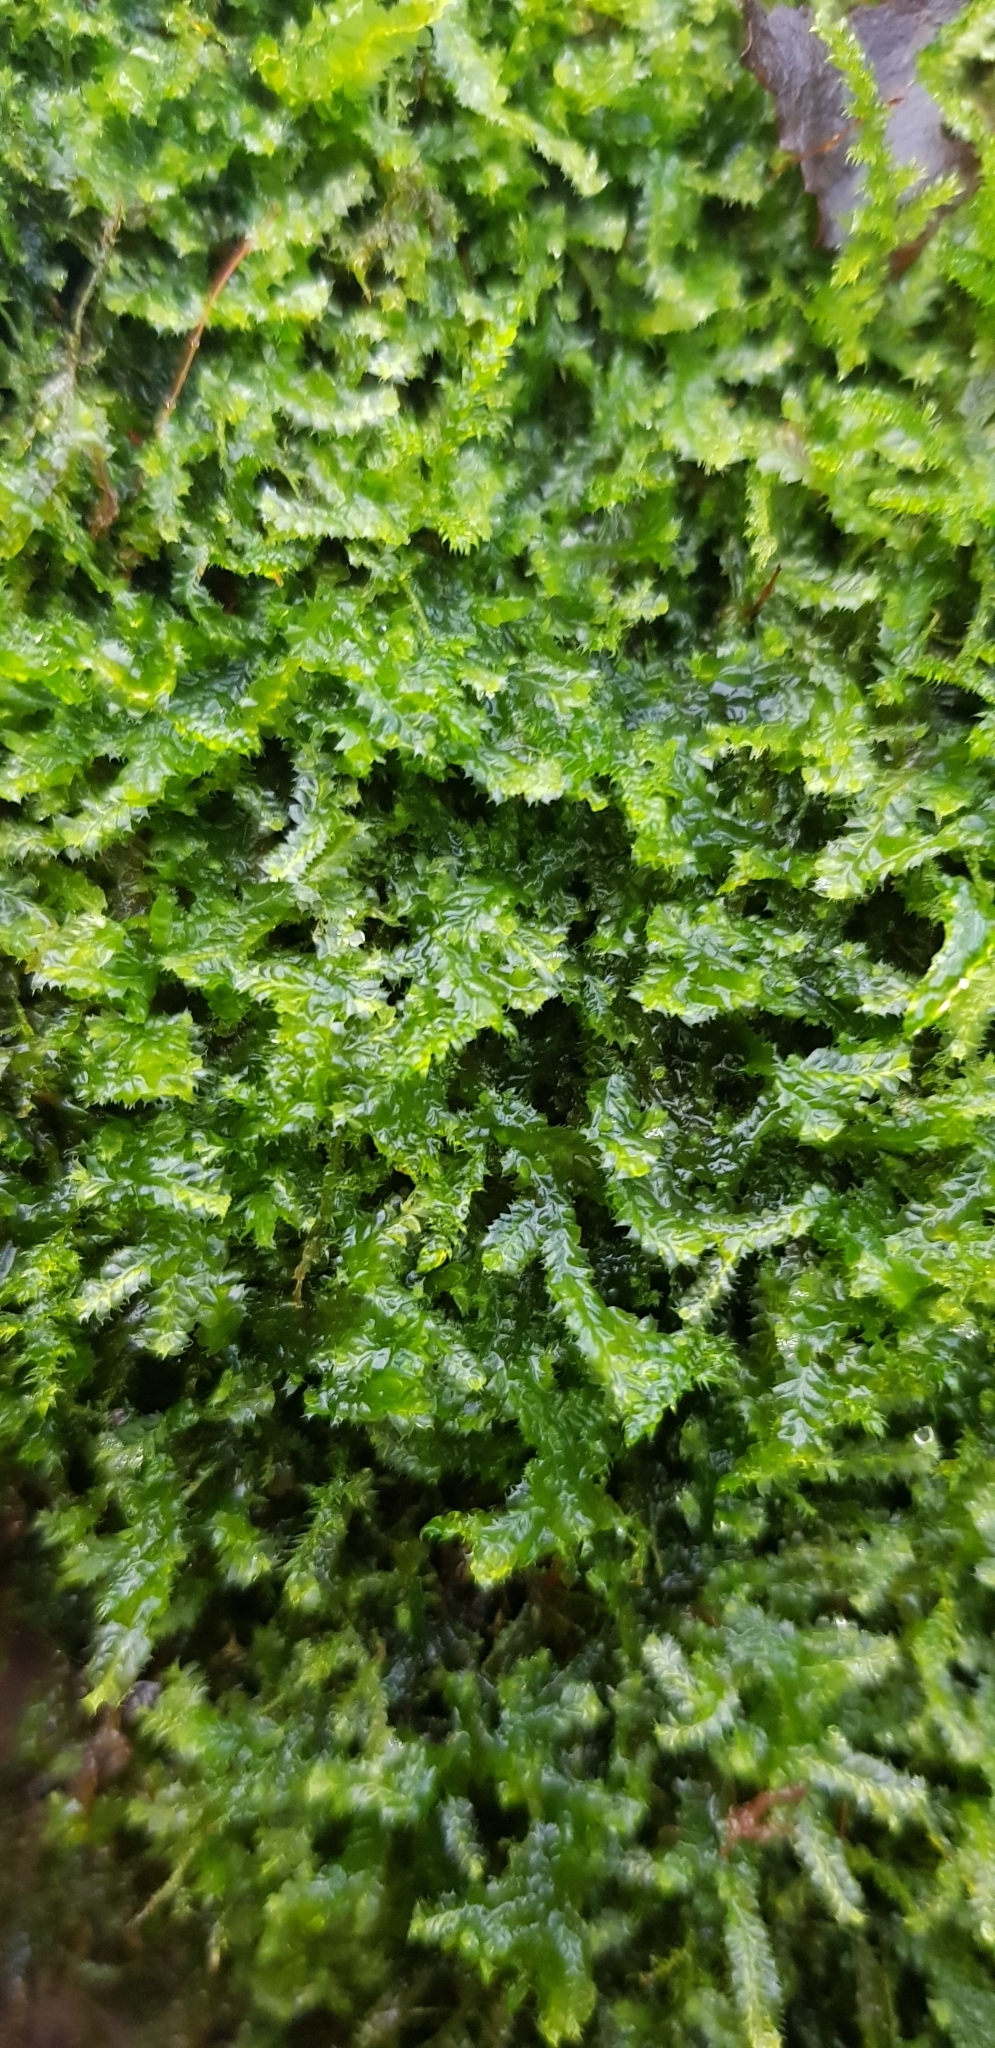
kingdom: Plantae
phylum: Marchantiophyta
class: Jungermanniopsida
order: Jungermanniales
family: Lophocoleaceae
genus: Lophocolea
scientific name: Lophocolea bidentata
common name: Bifid crestwort
